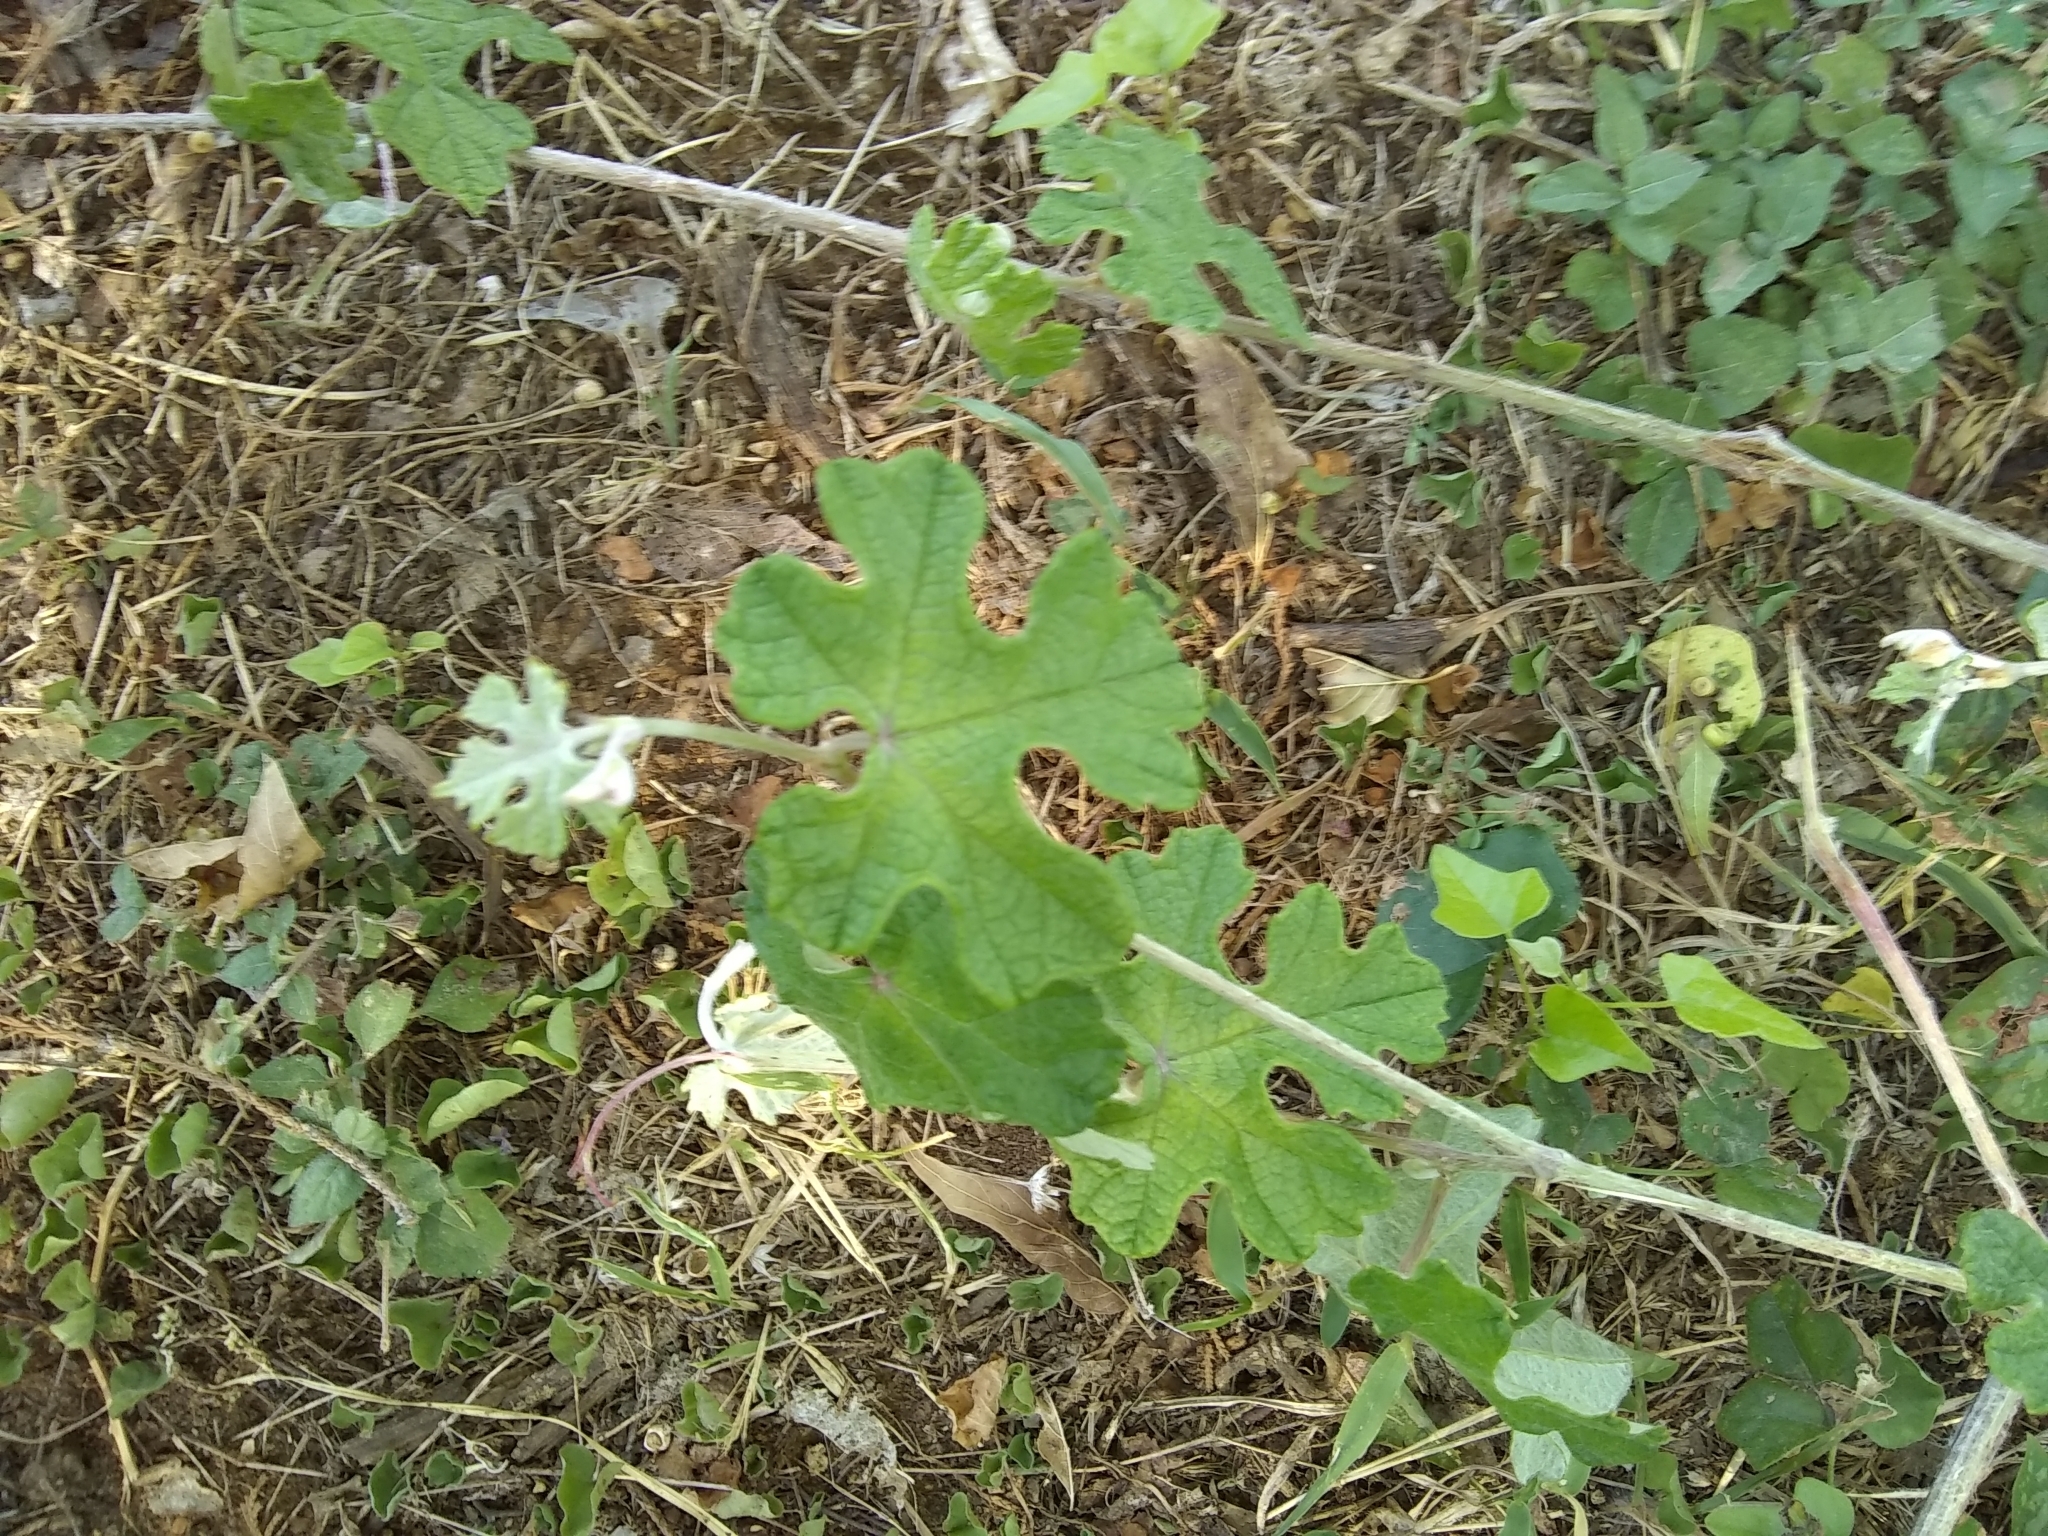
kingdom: Plantae
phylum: Tracheophyta
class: Magnoliopsida
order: Vitales
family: Vitaceae
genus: Vitis
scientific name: Vitis mustangensis
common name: Mustang grape
